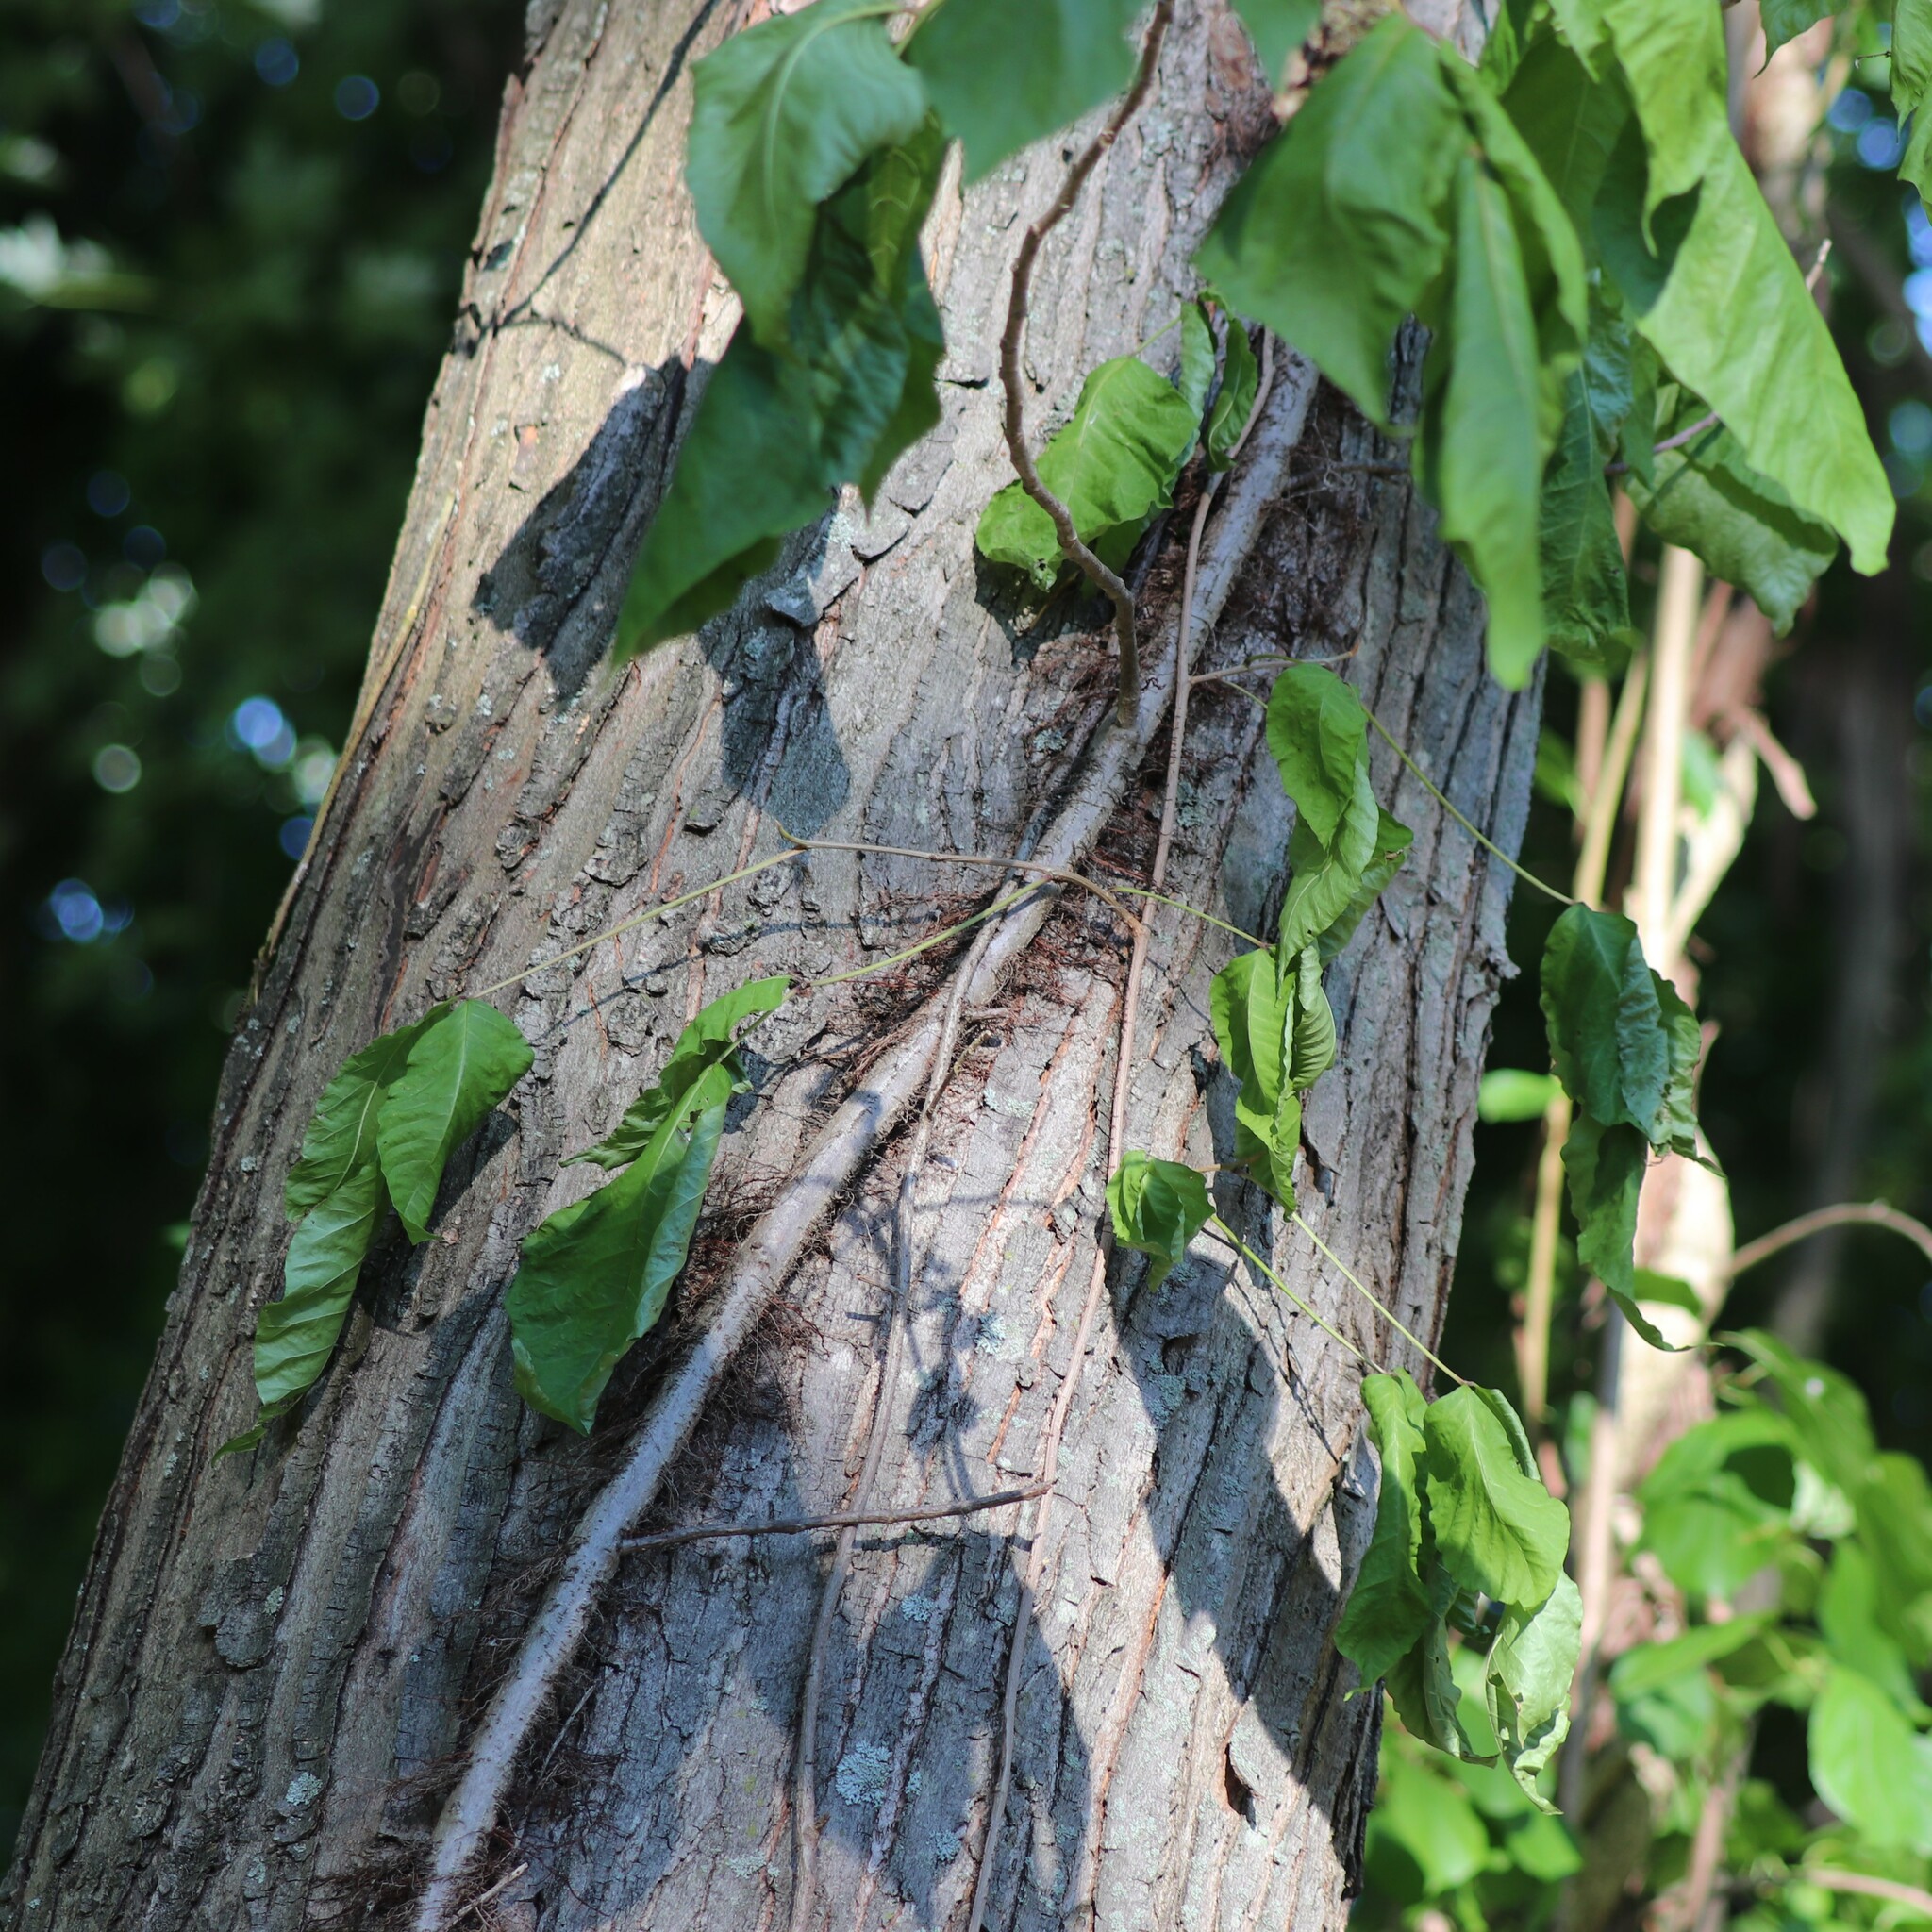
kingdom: Plantae
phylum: Tracheophyta
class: Magnoliopsida
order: Sapindales
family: Anacardiaceae
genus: Toxicodendron
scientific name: Toxicodendron radicans
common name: Poison ivy
